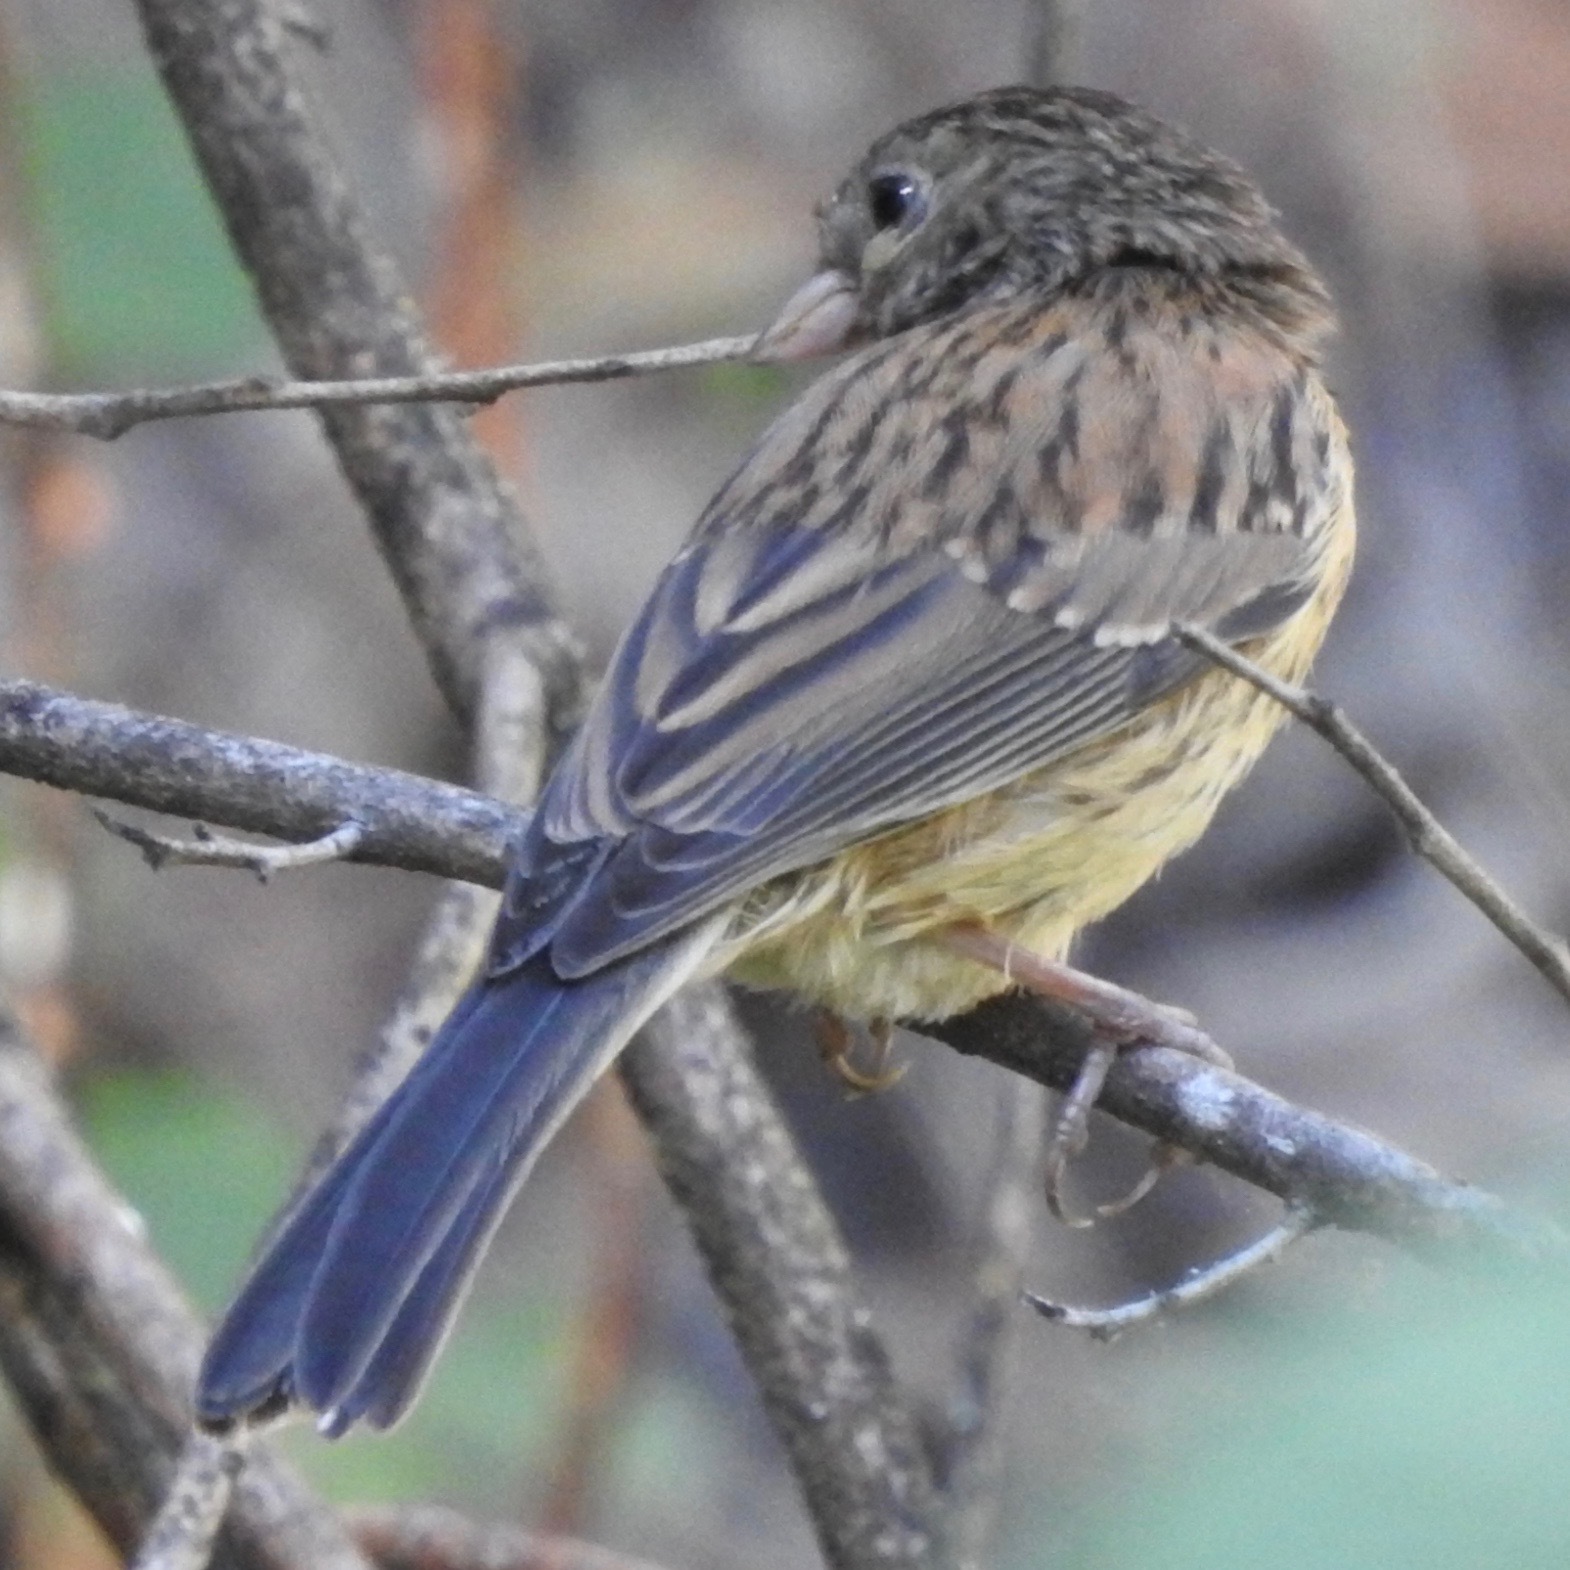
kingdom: Animalia
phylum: Chordata
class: Aves
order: Passeriformes
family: Passerellidae
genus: Junco
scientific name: Junco hyemalis
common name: Dark-eyed junco
